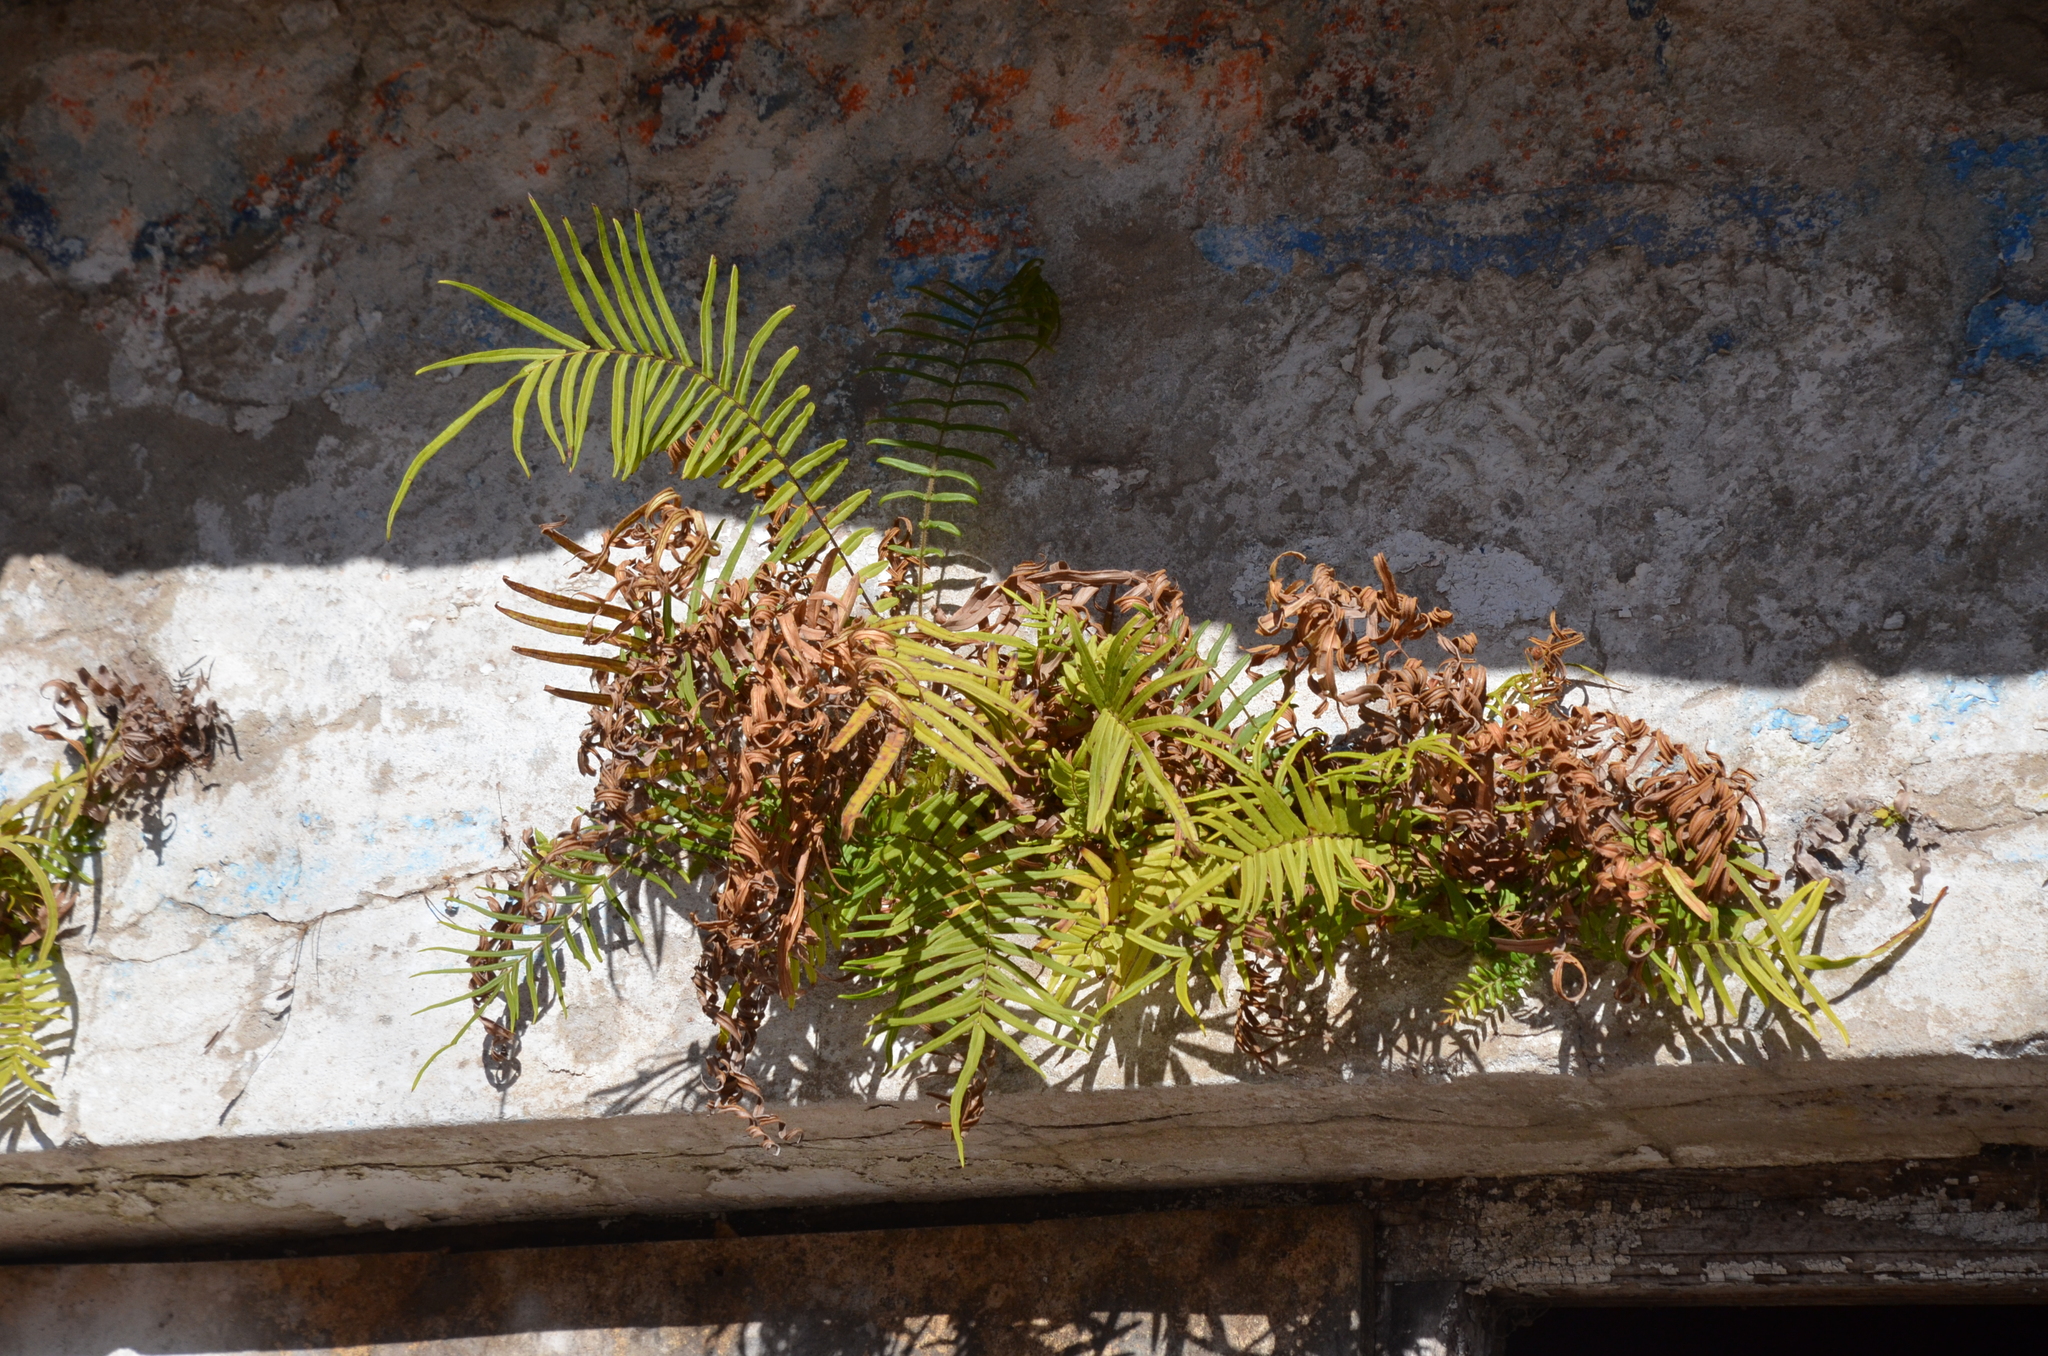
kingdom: Plantae
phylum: Tracheophyta
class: Polypodiopsida
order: Polypodiales
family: Pteridaceae
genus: Pteris
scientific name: Pteris vittata
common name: Ladder brake
